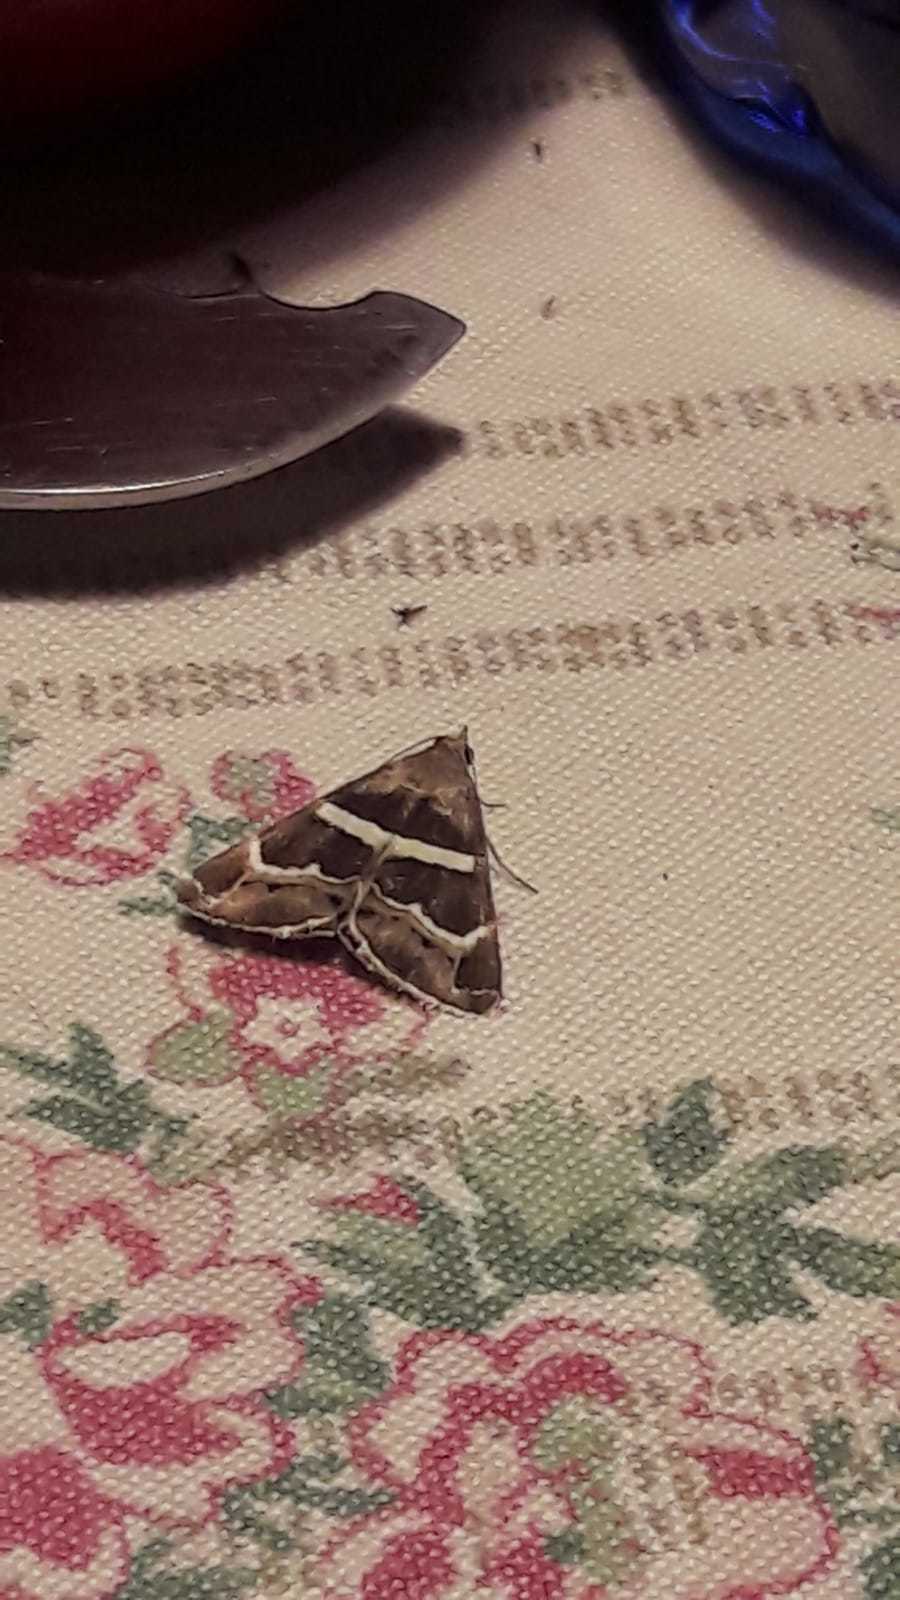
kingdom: Animalia
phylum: Arthropoda
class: Insecta
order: Lepidoptera
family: Erebidae
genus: Grammodes
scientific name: Grammodes stolida
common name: Geometrician
